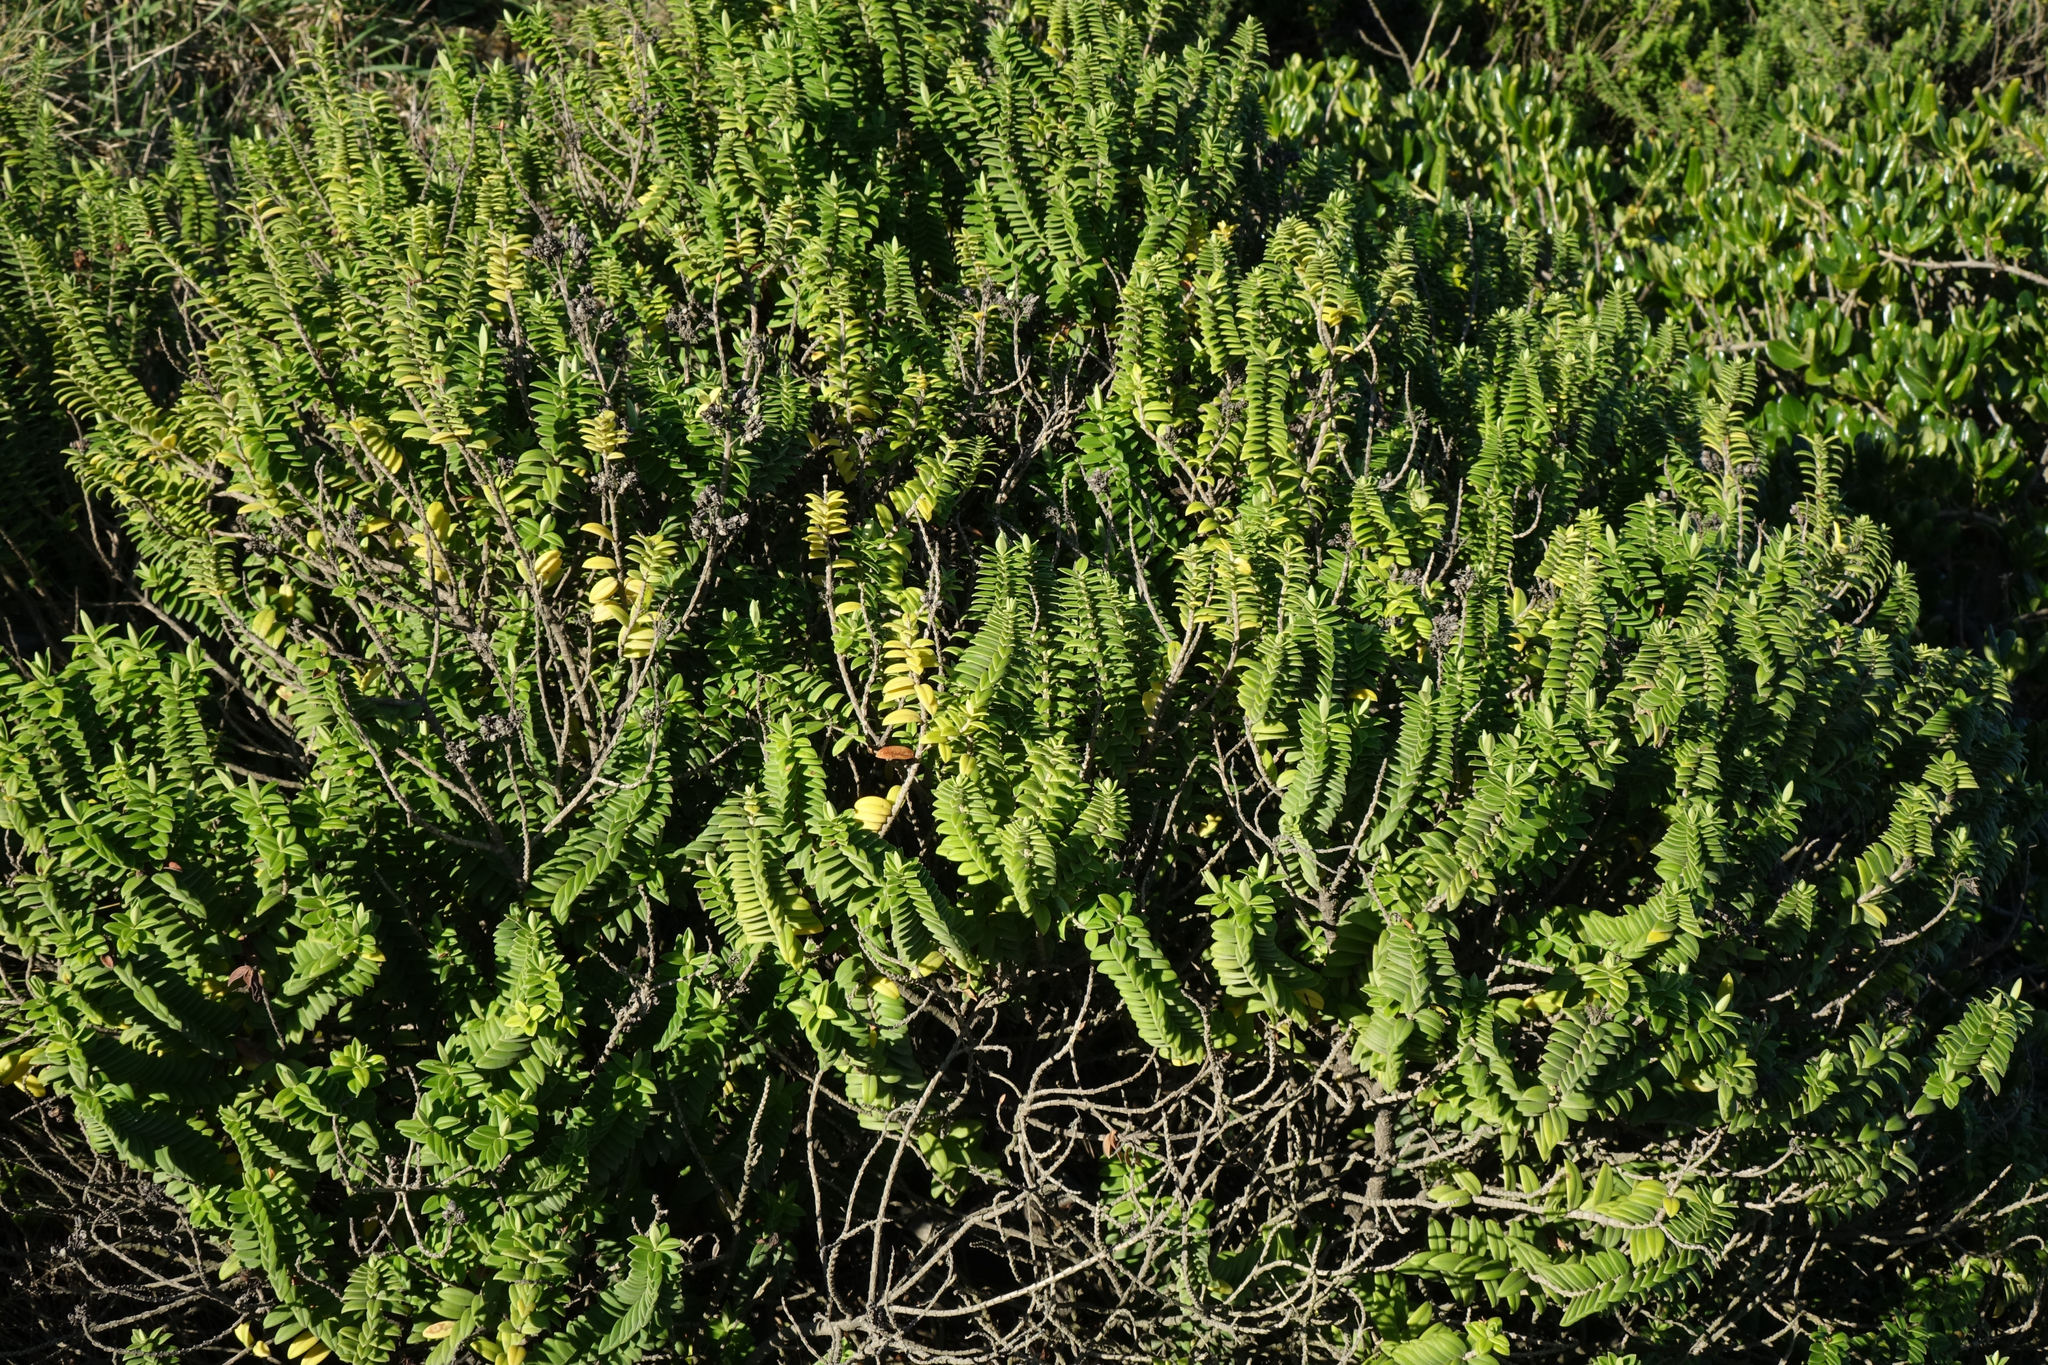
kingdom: Plantae
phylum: Tracheophyta
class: Magnoliopsida
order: Lamiales
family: Plantaginaceae
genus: Veronica
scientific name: Veronica elliptica
